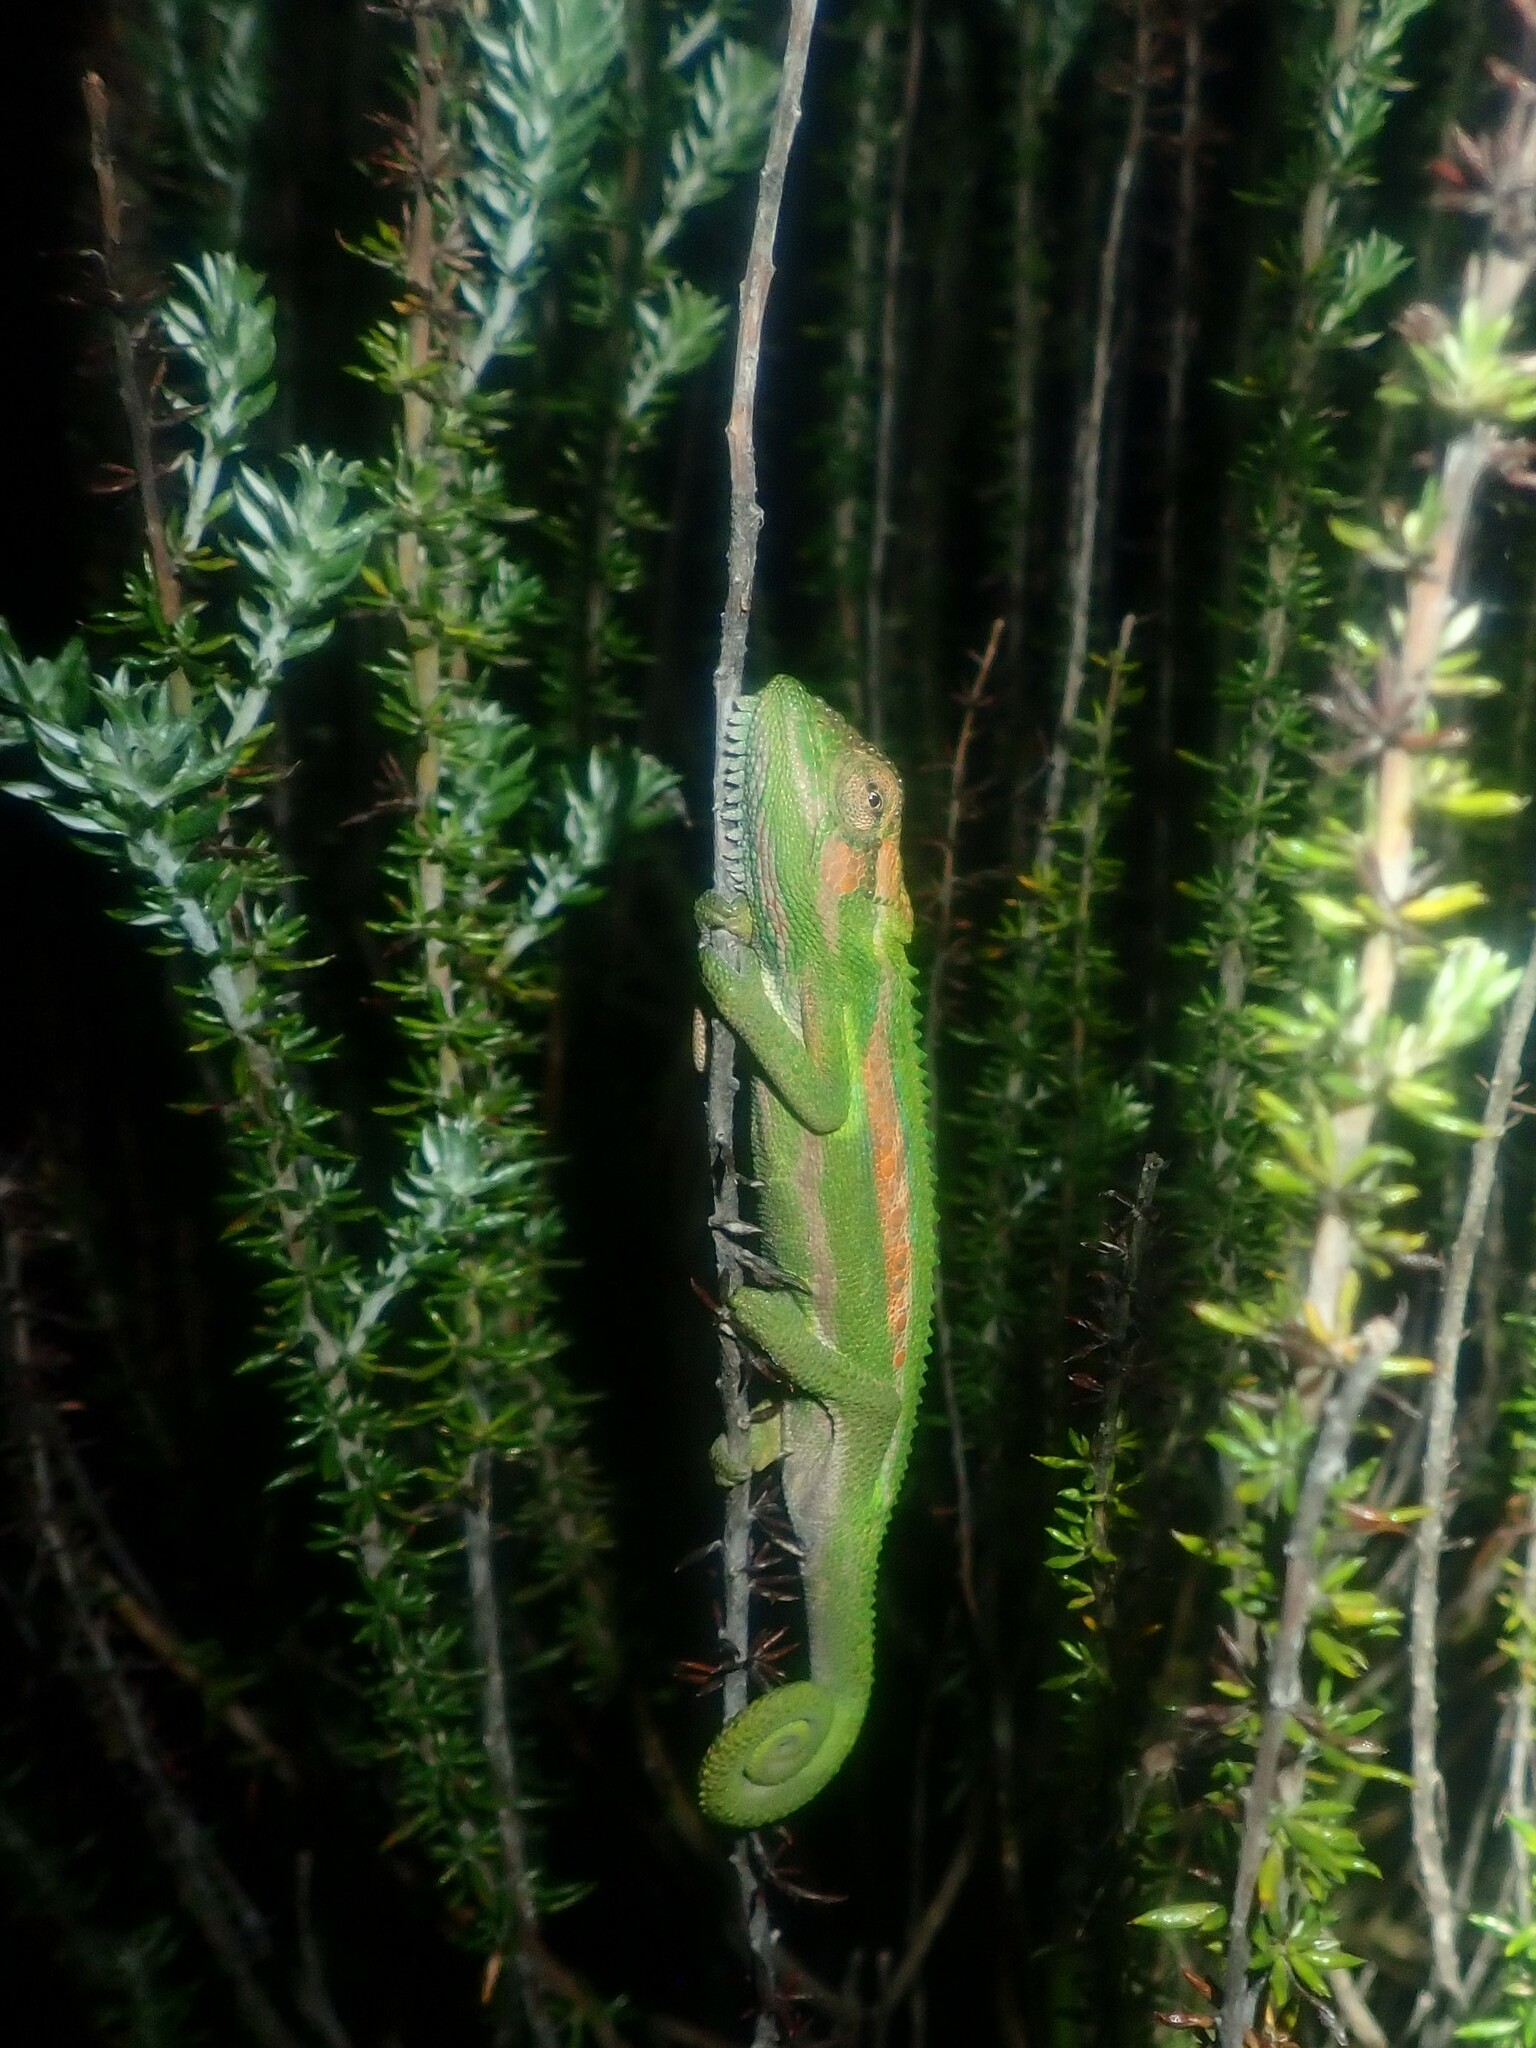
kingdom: Animalia
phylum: Chordata
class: Squamata
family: Chamaeleonidae
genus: Bradypodion
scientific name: Bradypodion pumilum
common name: Cape dwarf chameleon
